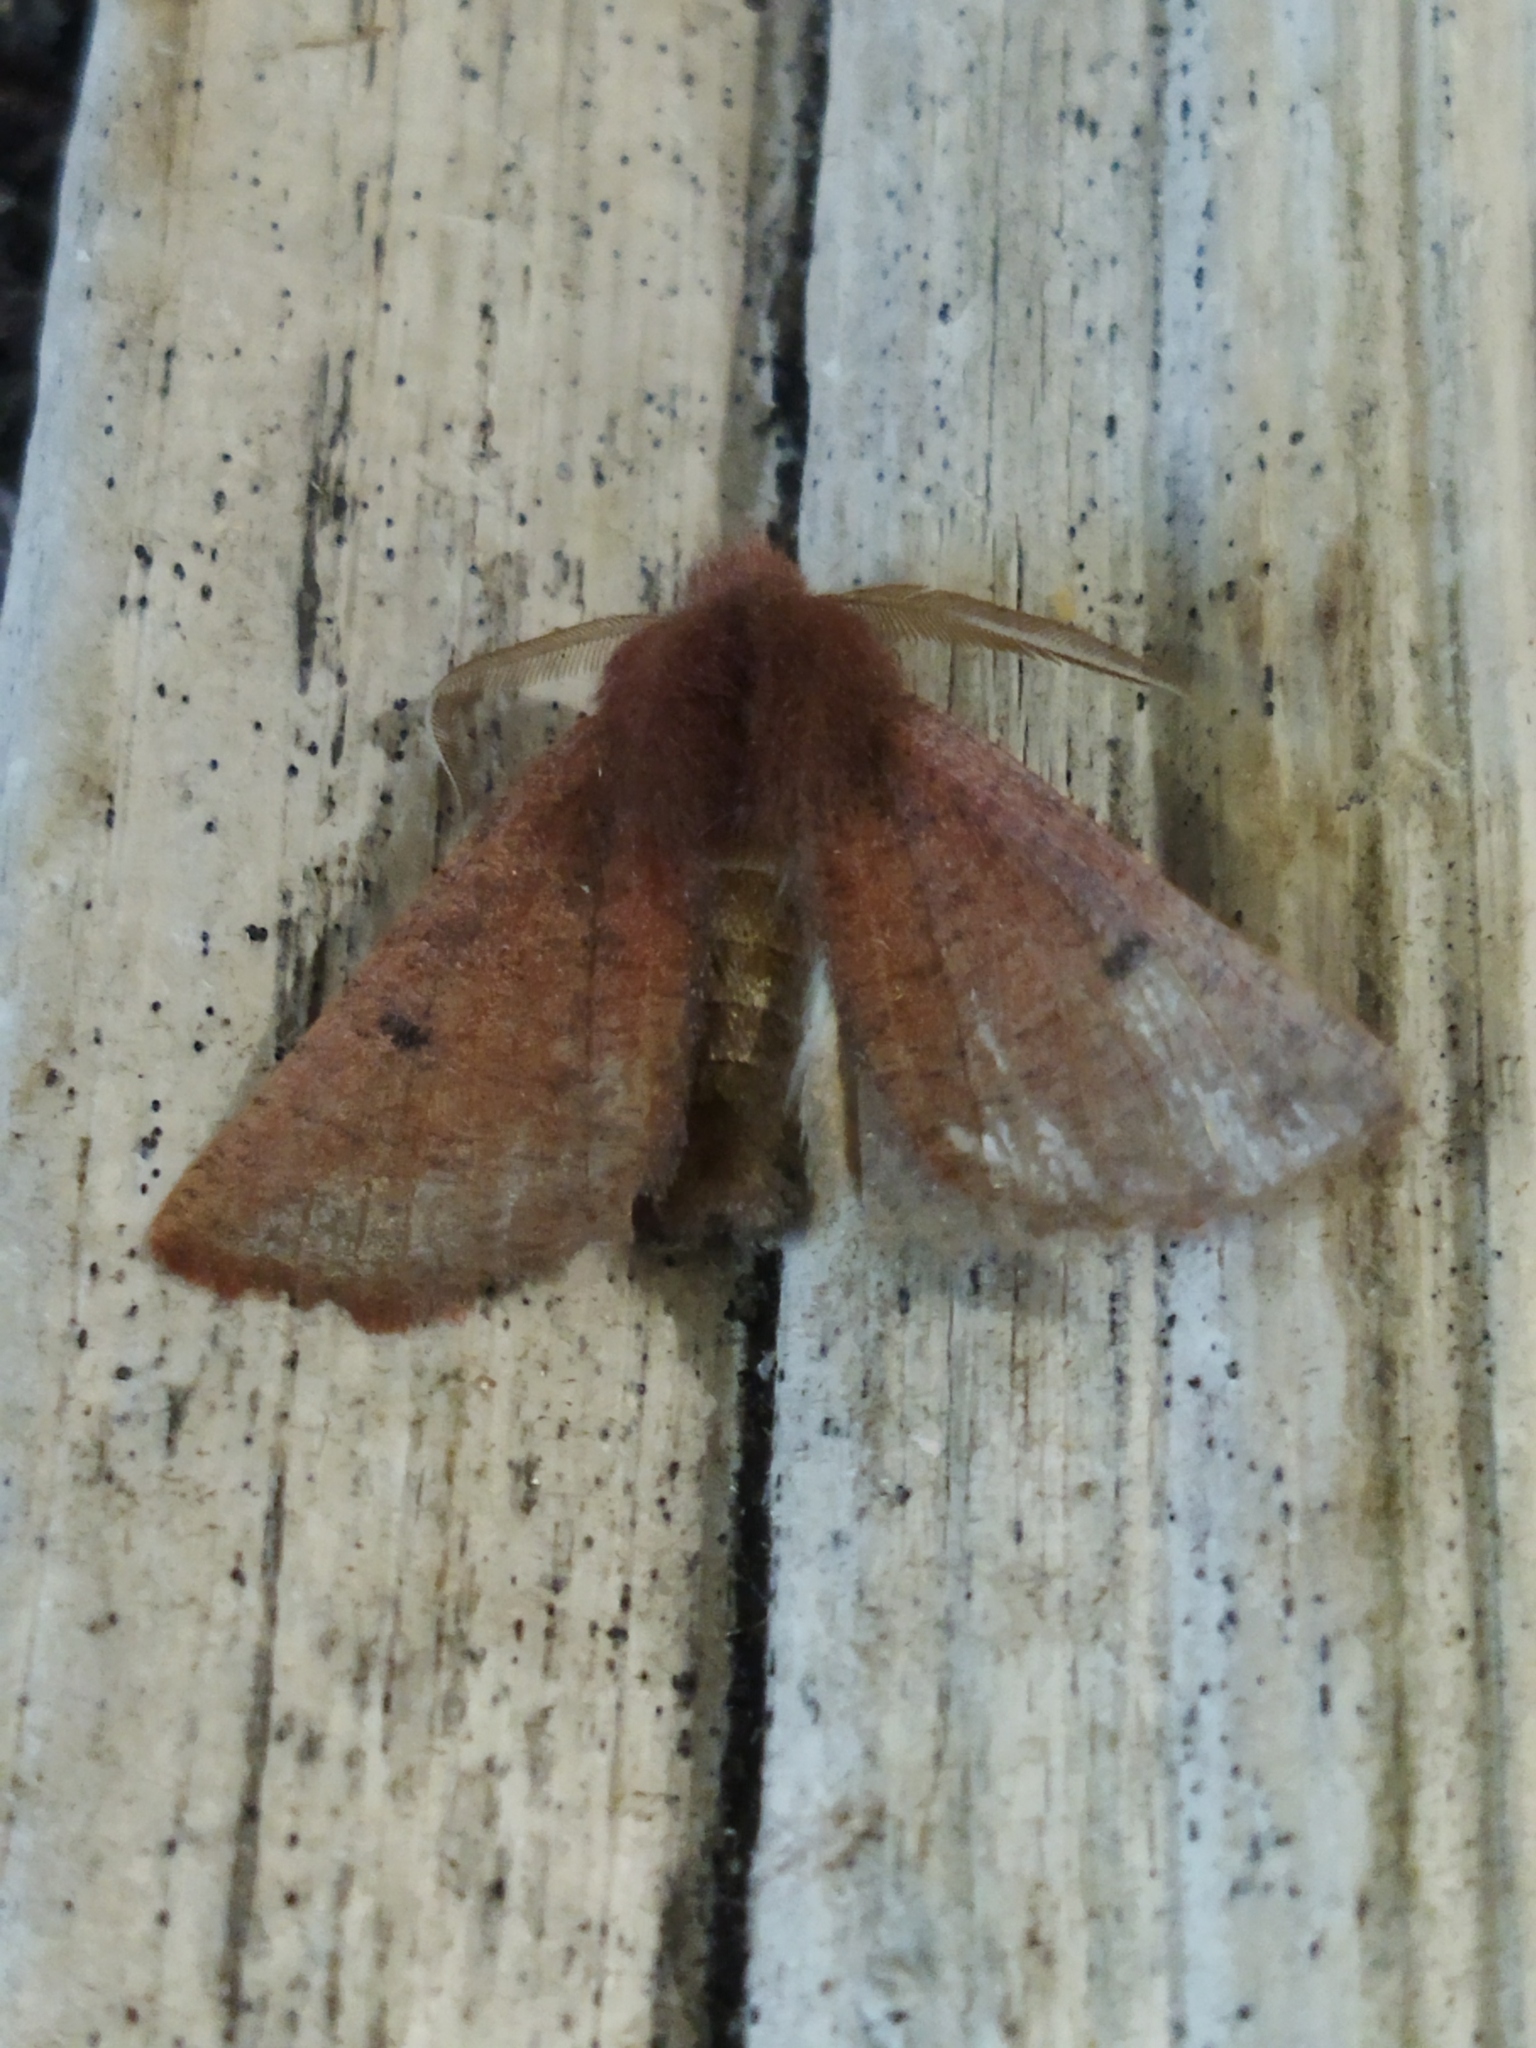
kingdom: Animalia
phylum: Arthropoda
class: Insecta
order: Lepidoptera
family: Geometridae
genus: Dasycorsa
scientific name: Dasycorsa modesta
